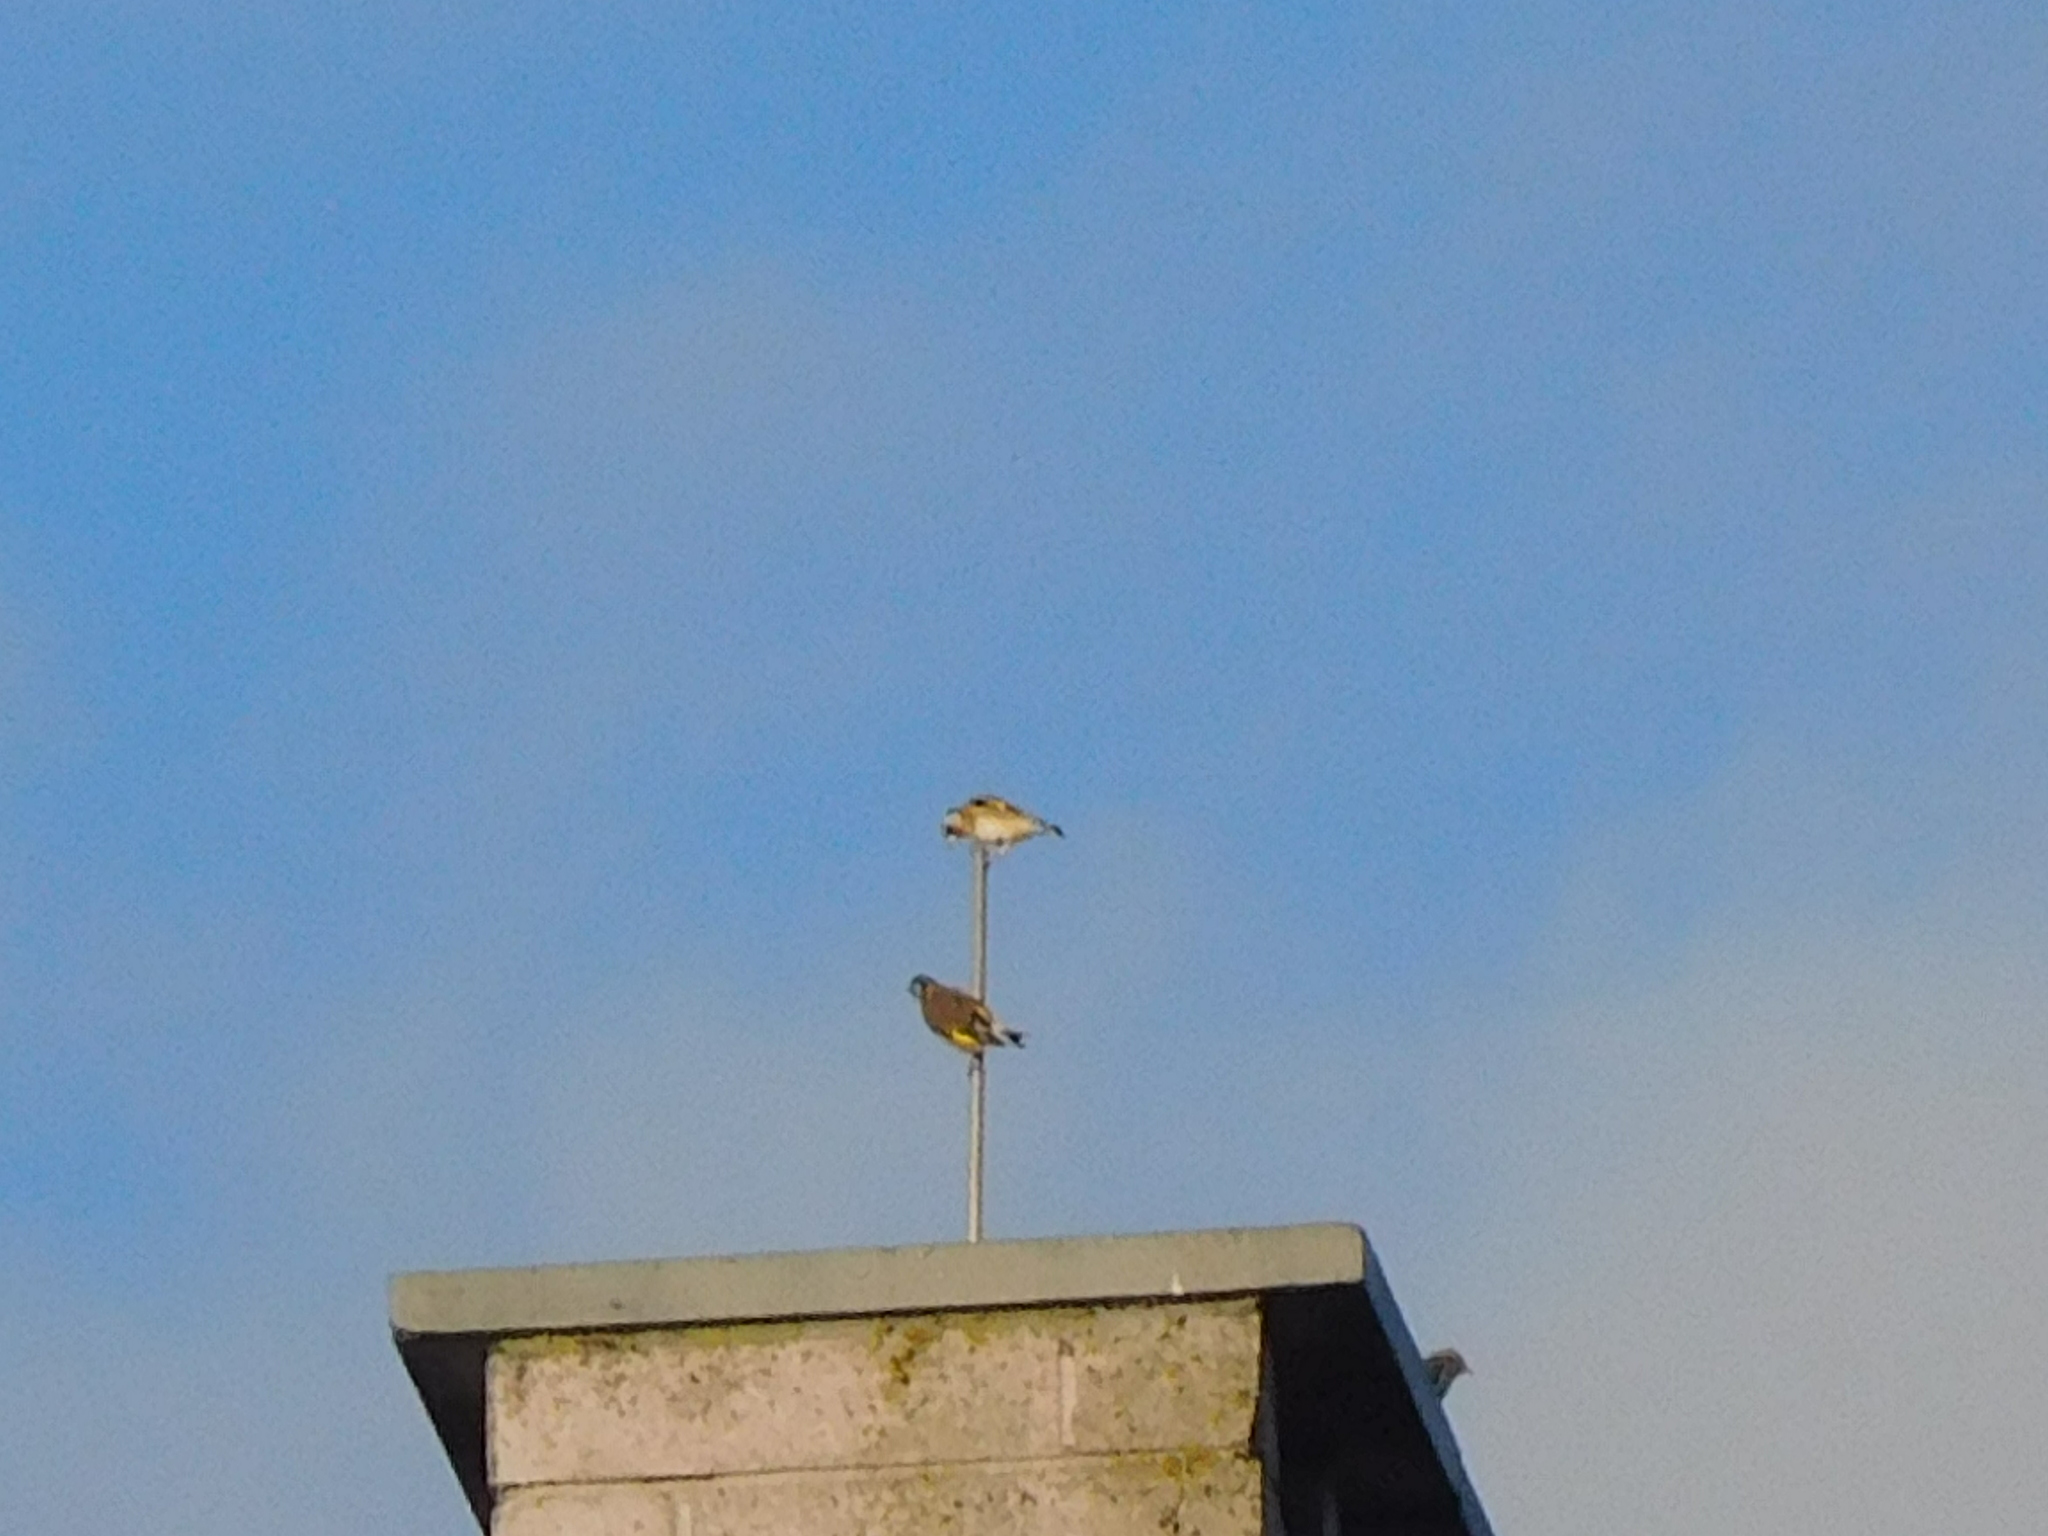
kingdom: Animalia
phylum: Chordata
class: Aves
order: Passeriformes
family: Fringillidae
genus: Carduelis
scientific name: Carduelis carduelis
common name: European goldfinch
